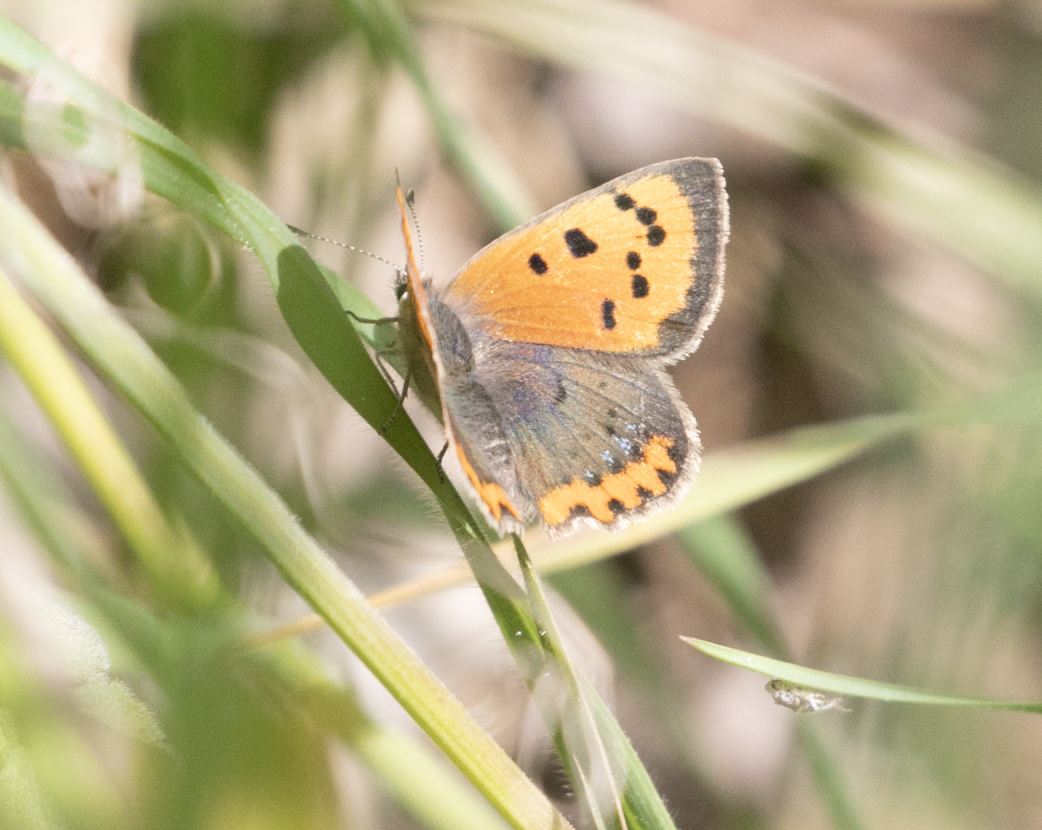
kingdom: Animalia
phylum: Arthropoda
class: Insecta
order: Lepidoptera
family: Lycaenidae
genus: Lycaena
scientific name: Lycaena phlaeas
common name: Small copper
